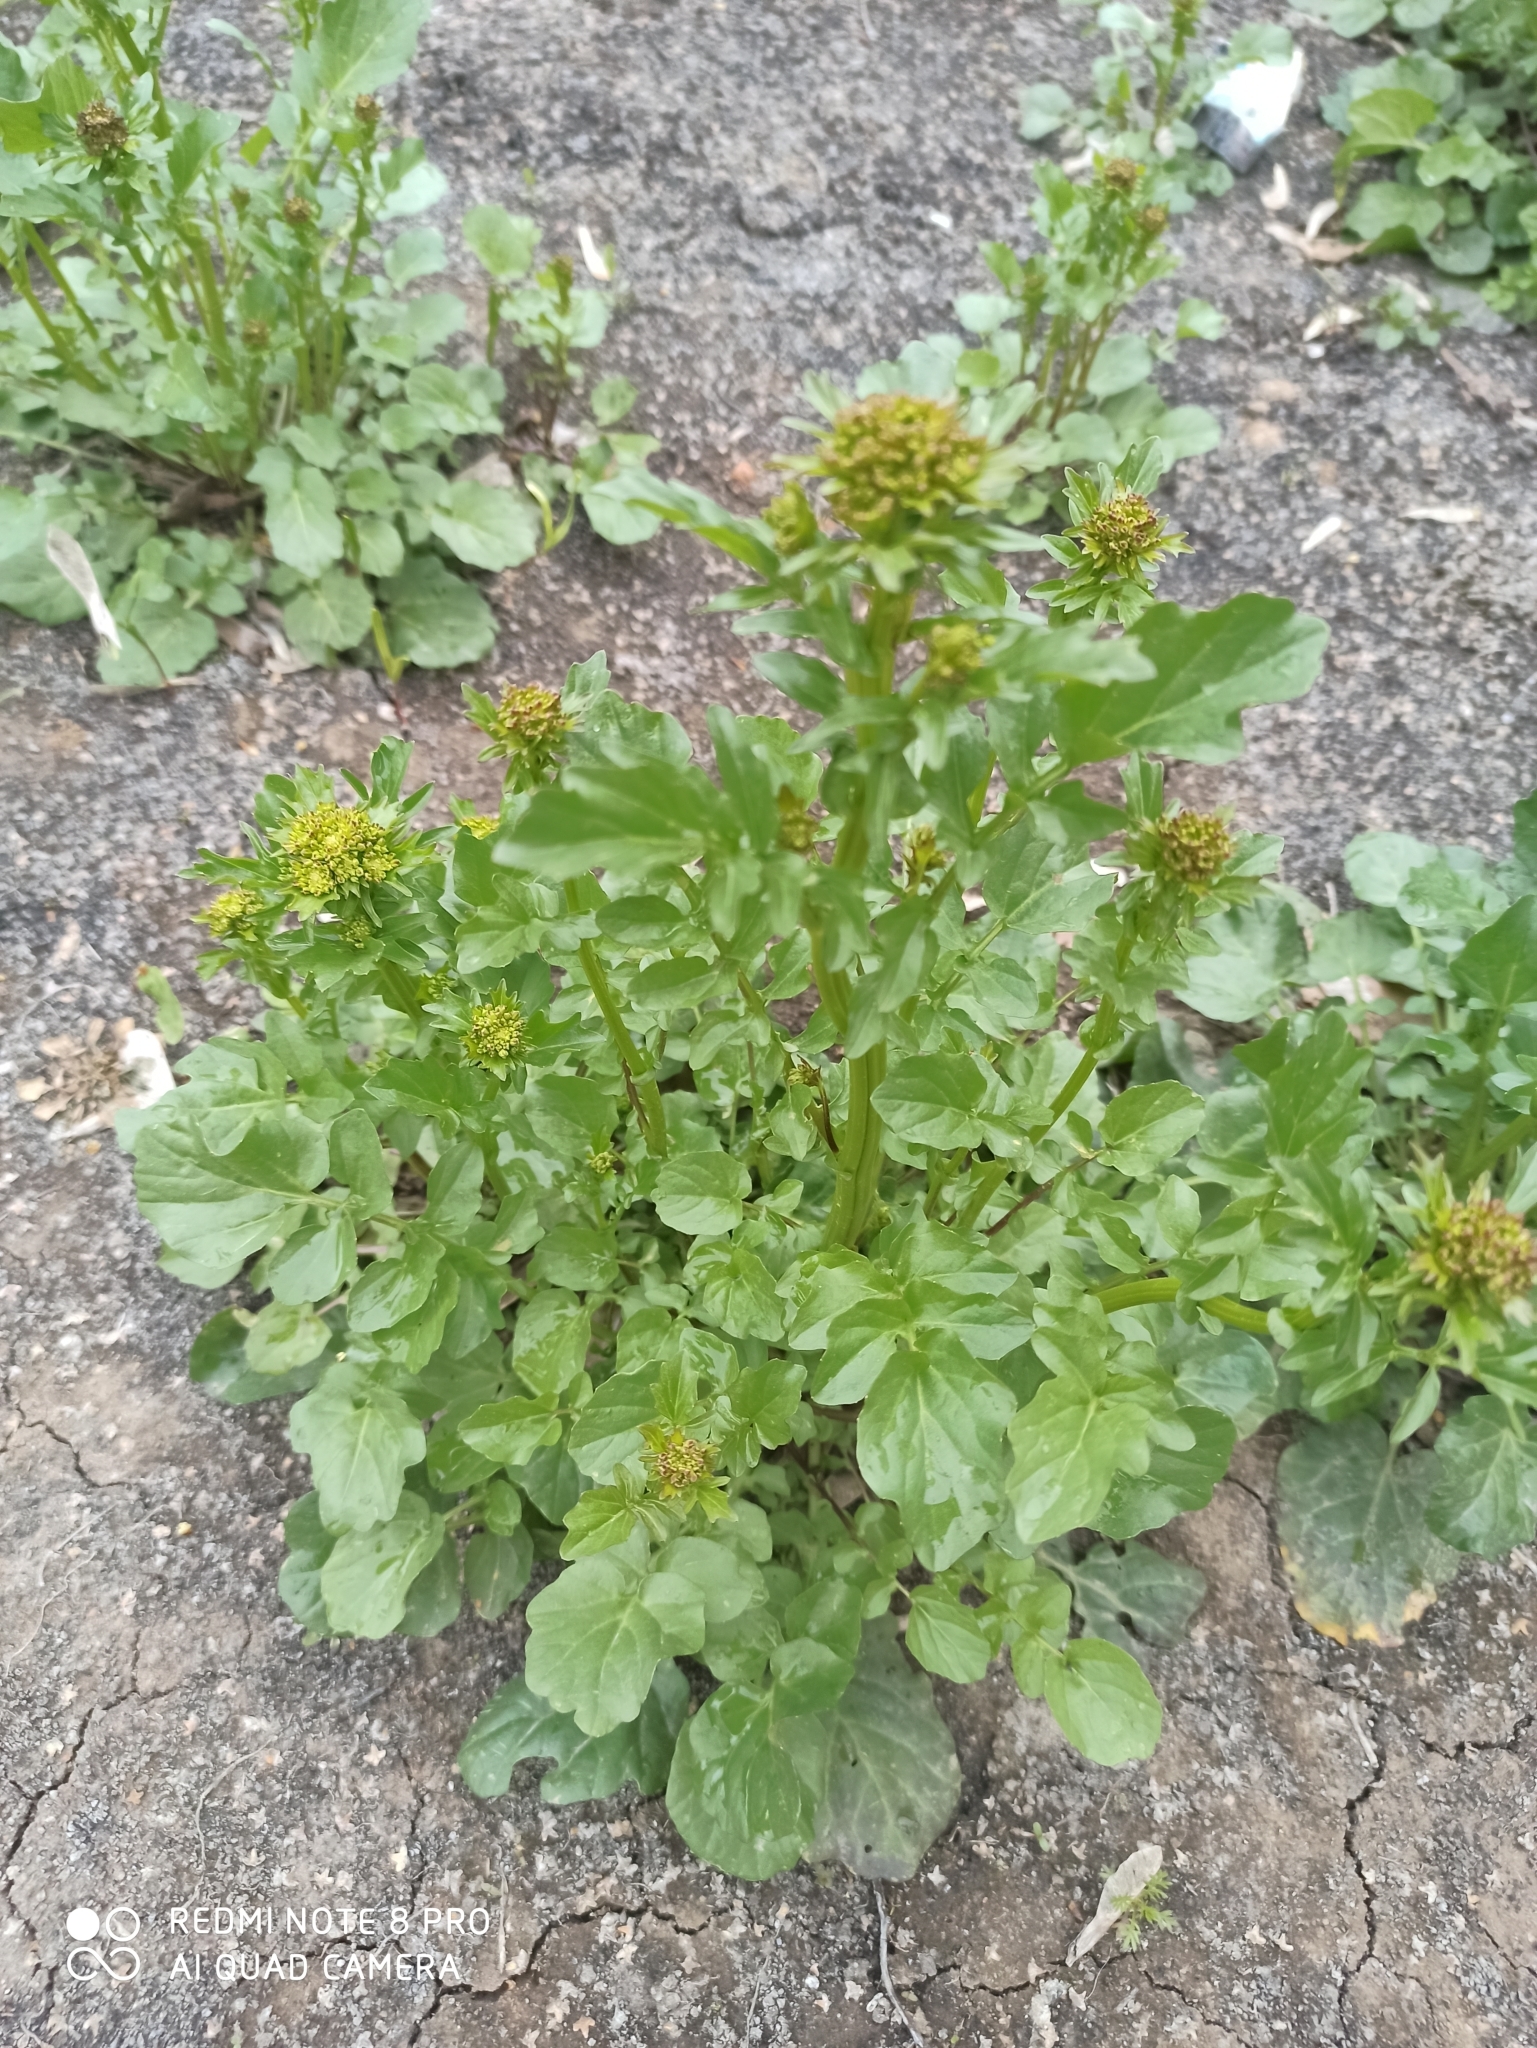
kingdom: Plantae
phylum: Tracheophyta
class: Magnoliopsida
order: Brassicales
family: Brassicaceae
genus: Barbarea
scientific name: Barbarea vulgaris
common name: Cressy-greens
